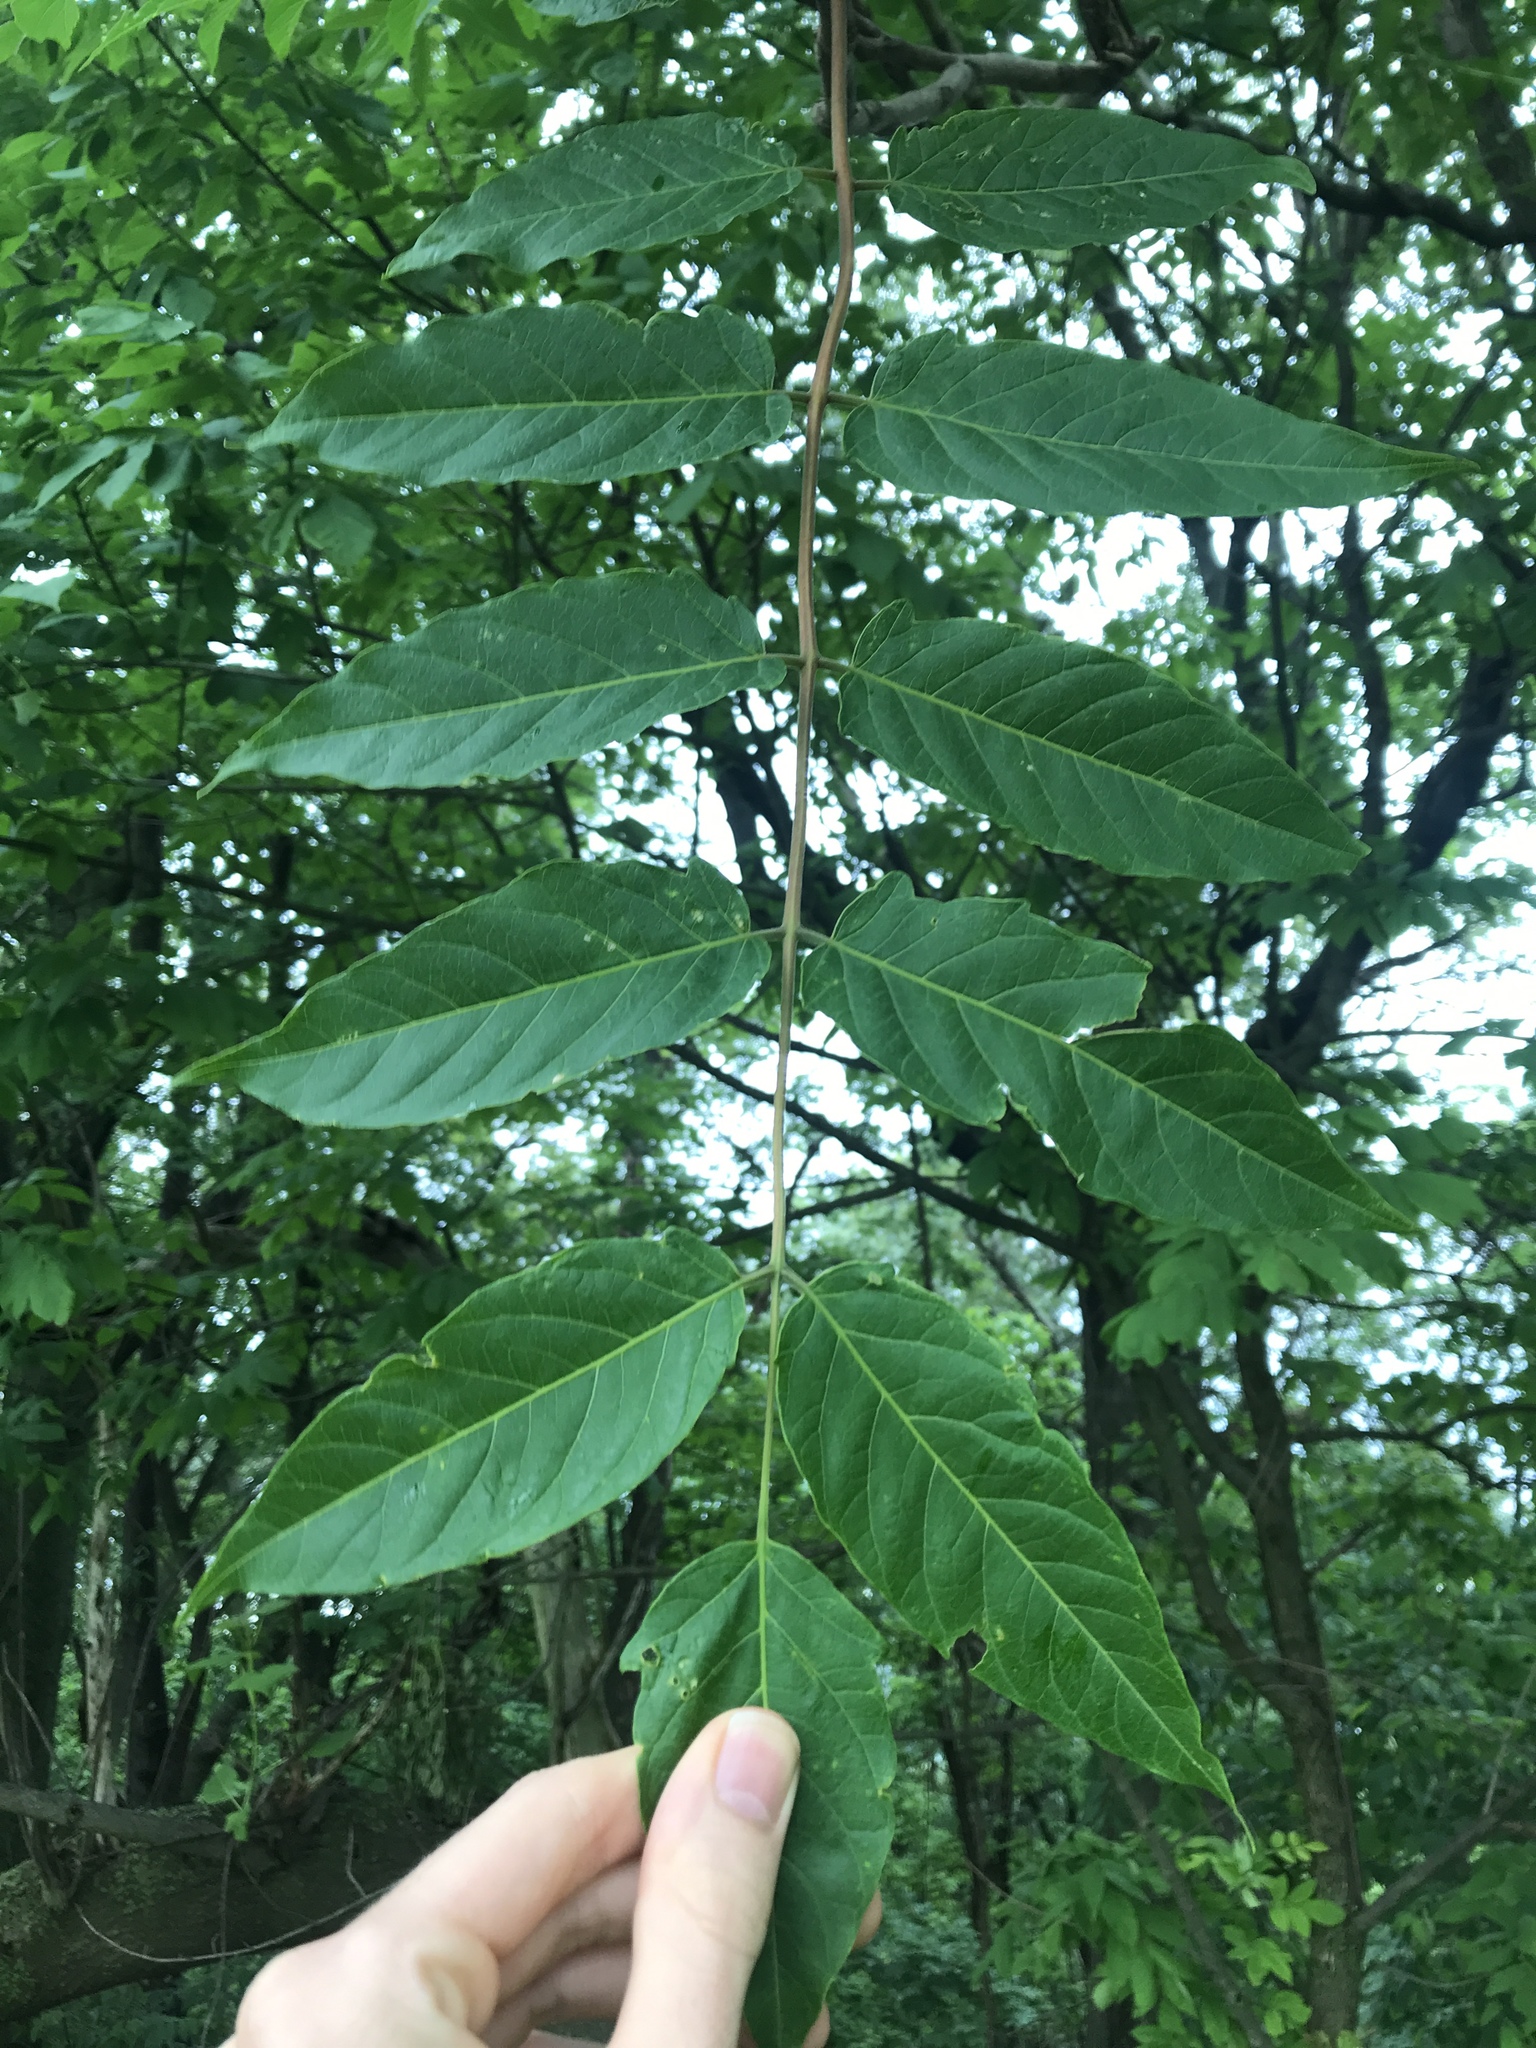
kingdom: Plantae
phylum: Tracheophyta
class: Magnoliopsida
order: Sapindales
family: Simaroubaceae
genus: Ailanthus
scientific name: Ailanthus altissima
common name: Tree-of-heaven
